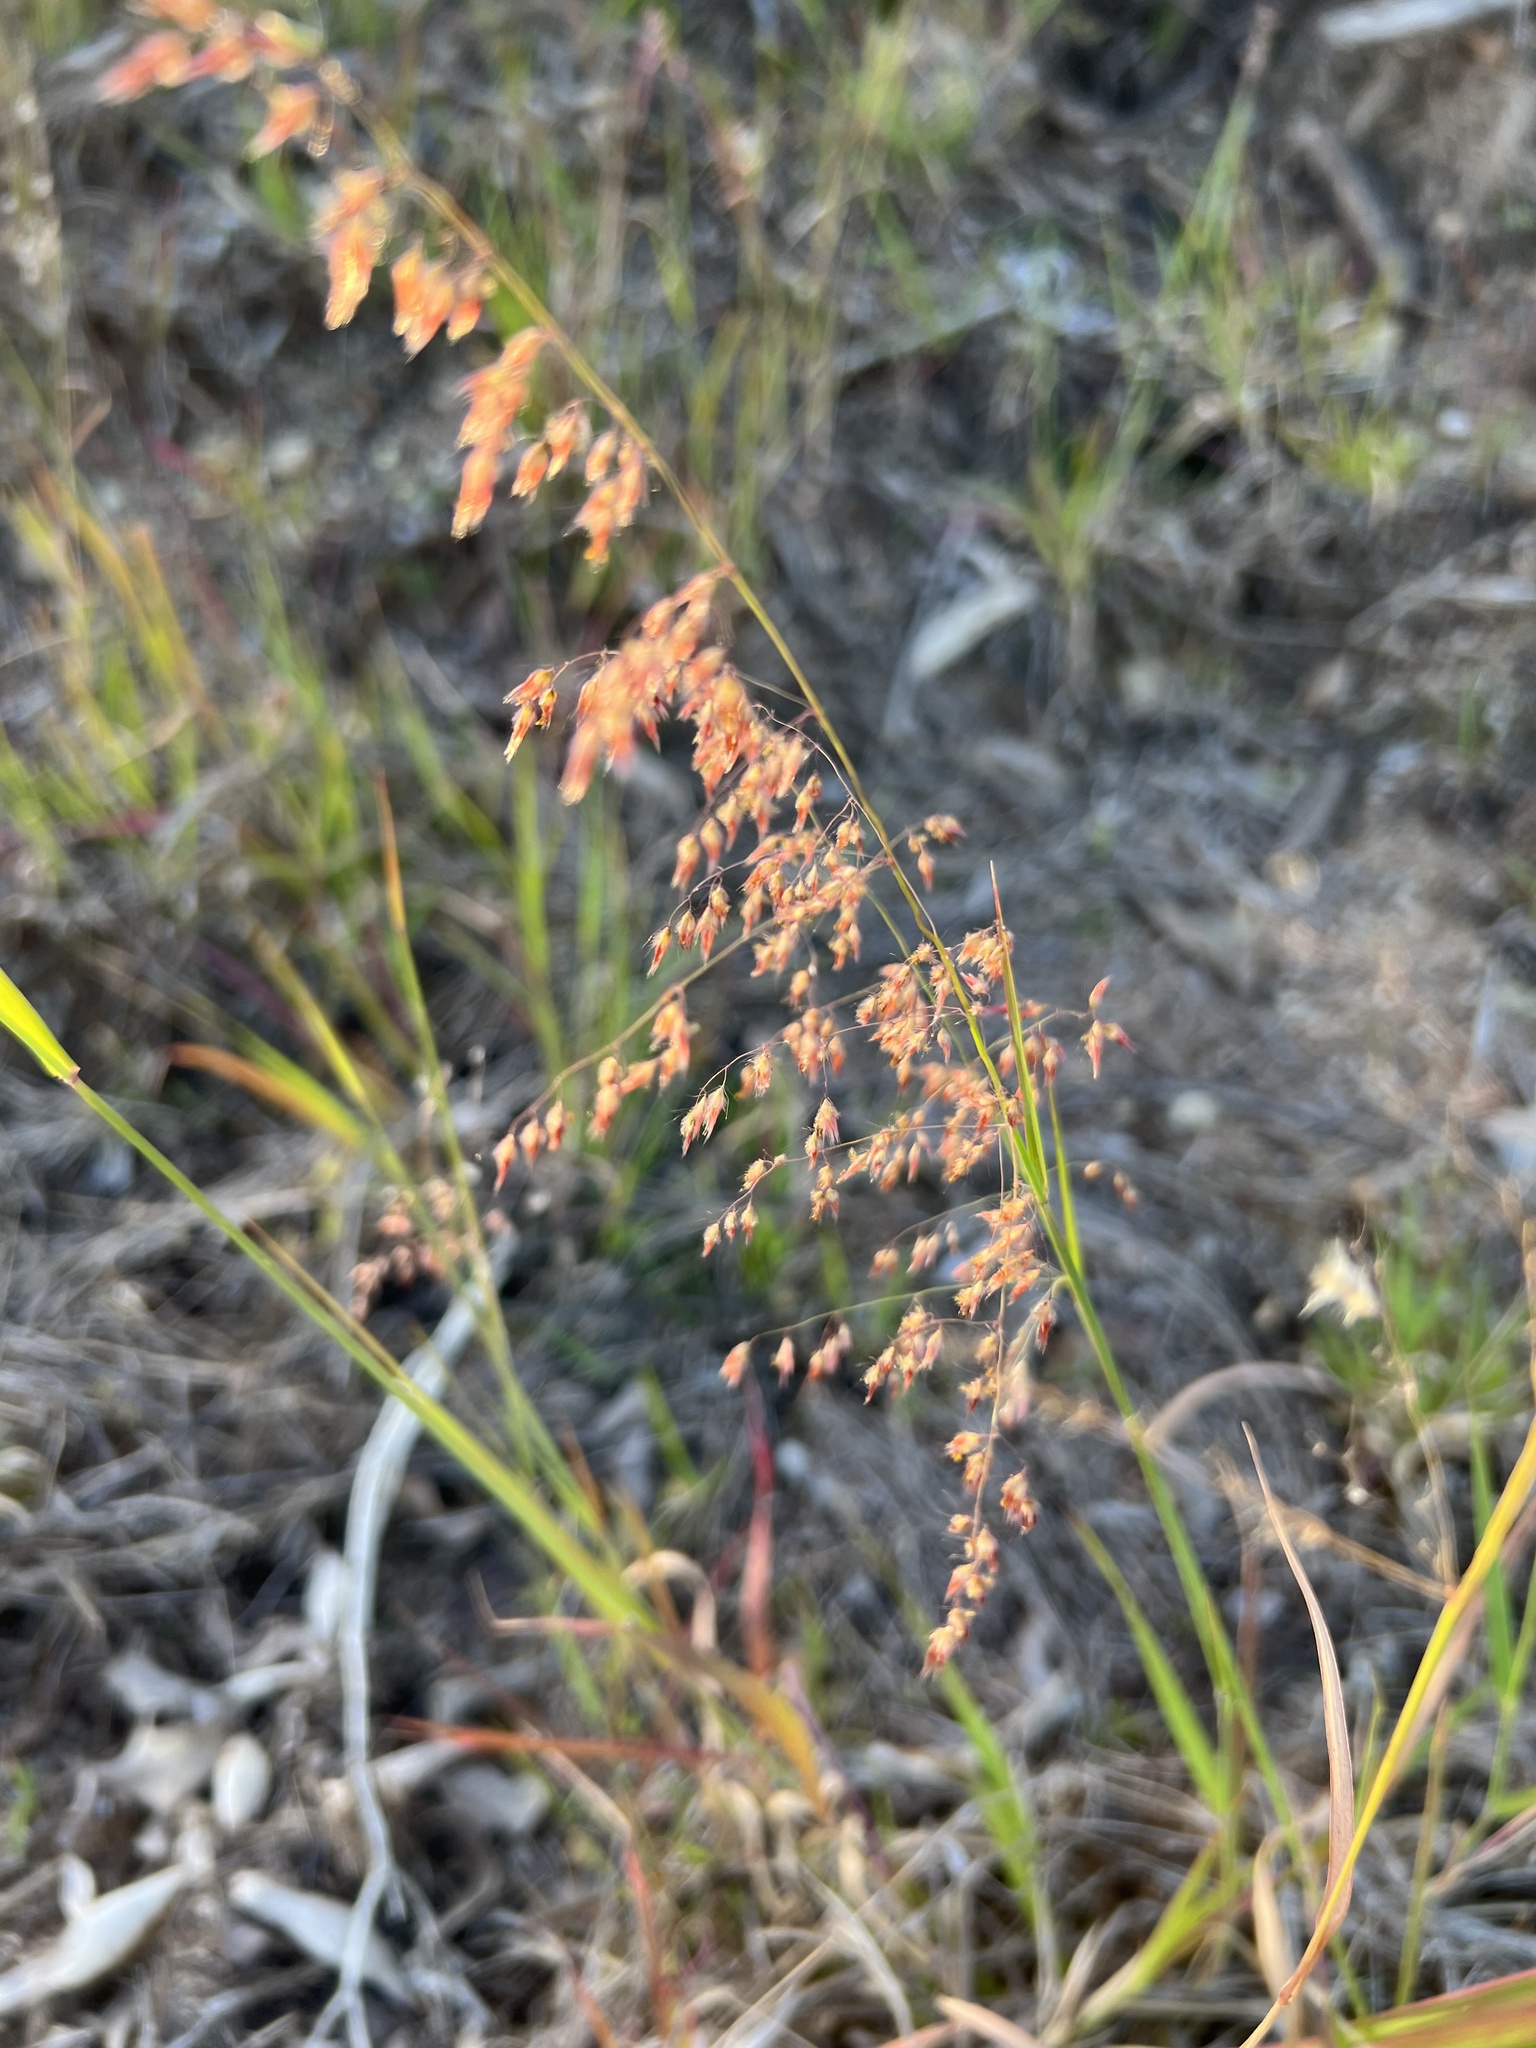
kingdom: Plantae
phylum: Tracheophyta
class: Liliopsida
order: Poales
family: Poaceae
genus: Melinis
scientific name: Melinis repens
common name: Rose natal grass
